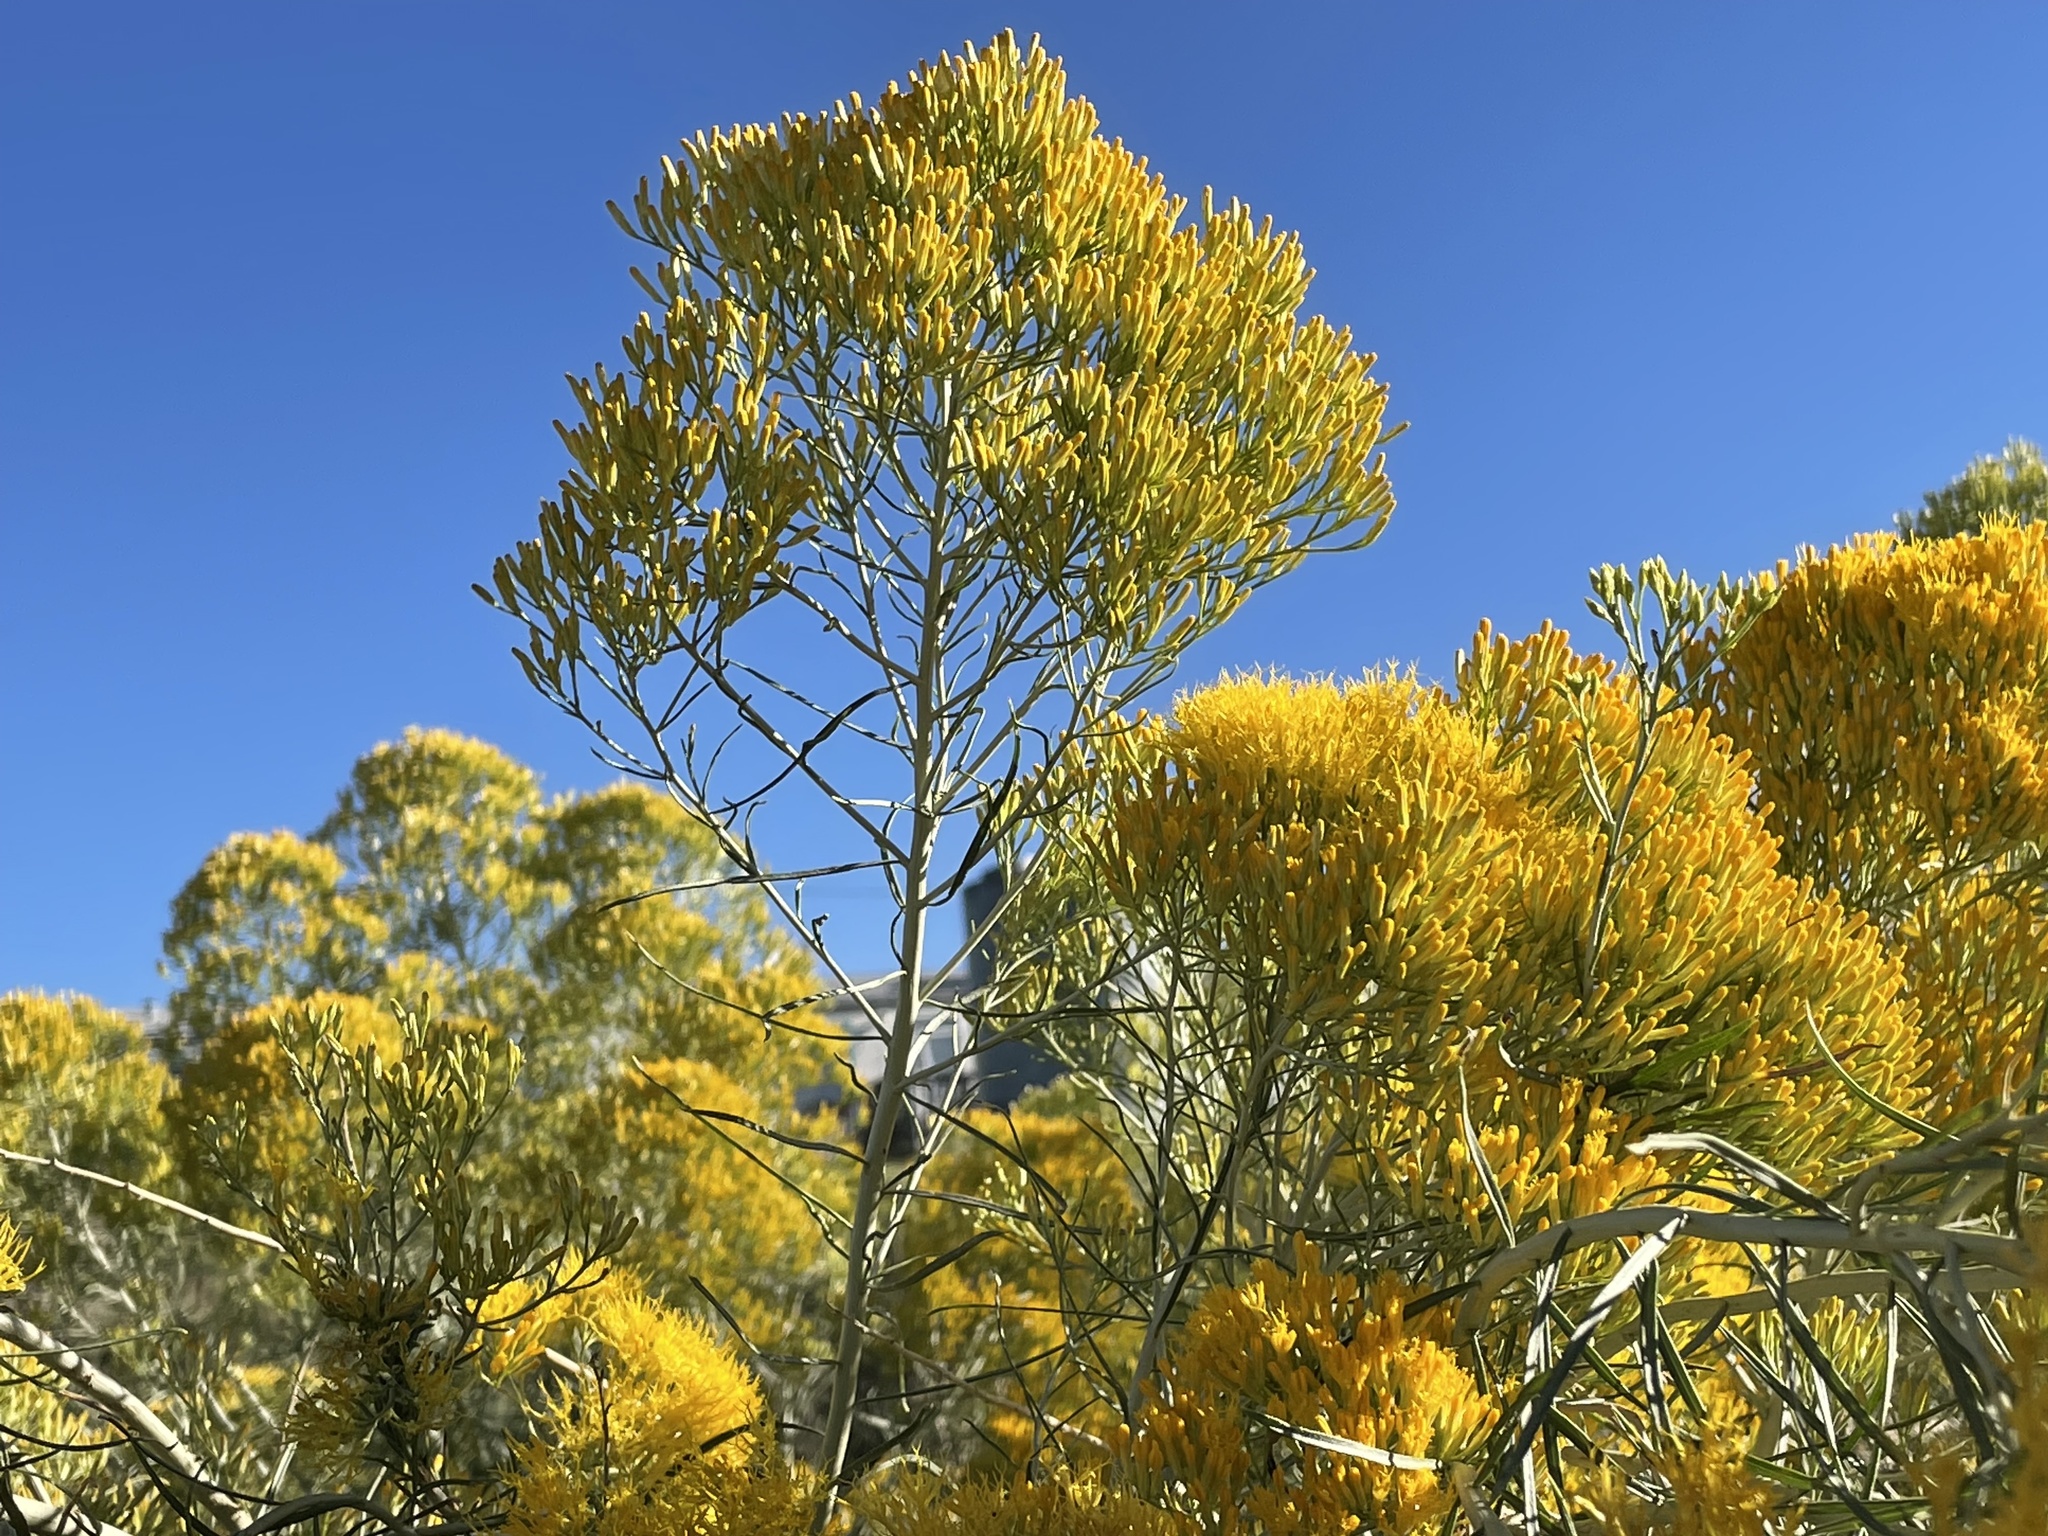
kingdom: Plantae
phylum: Tracheophyta
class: Magnoliopsida
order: Asterales
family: Asteraceae
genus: Ericameria
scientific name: Ericameria nauseosa
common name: Rubber rabbitbrush
